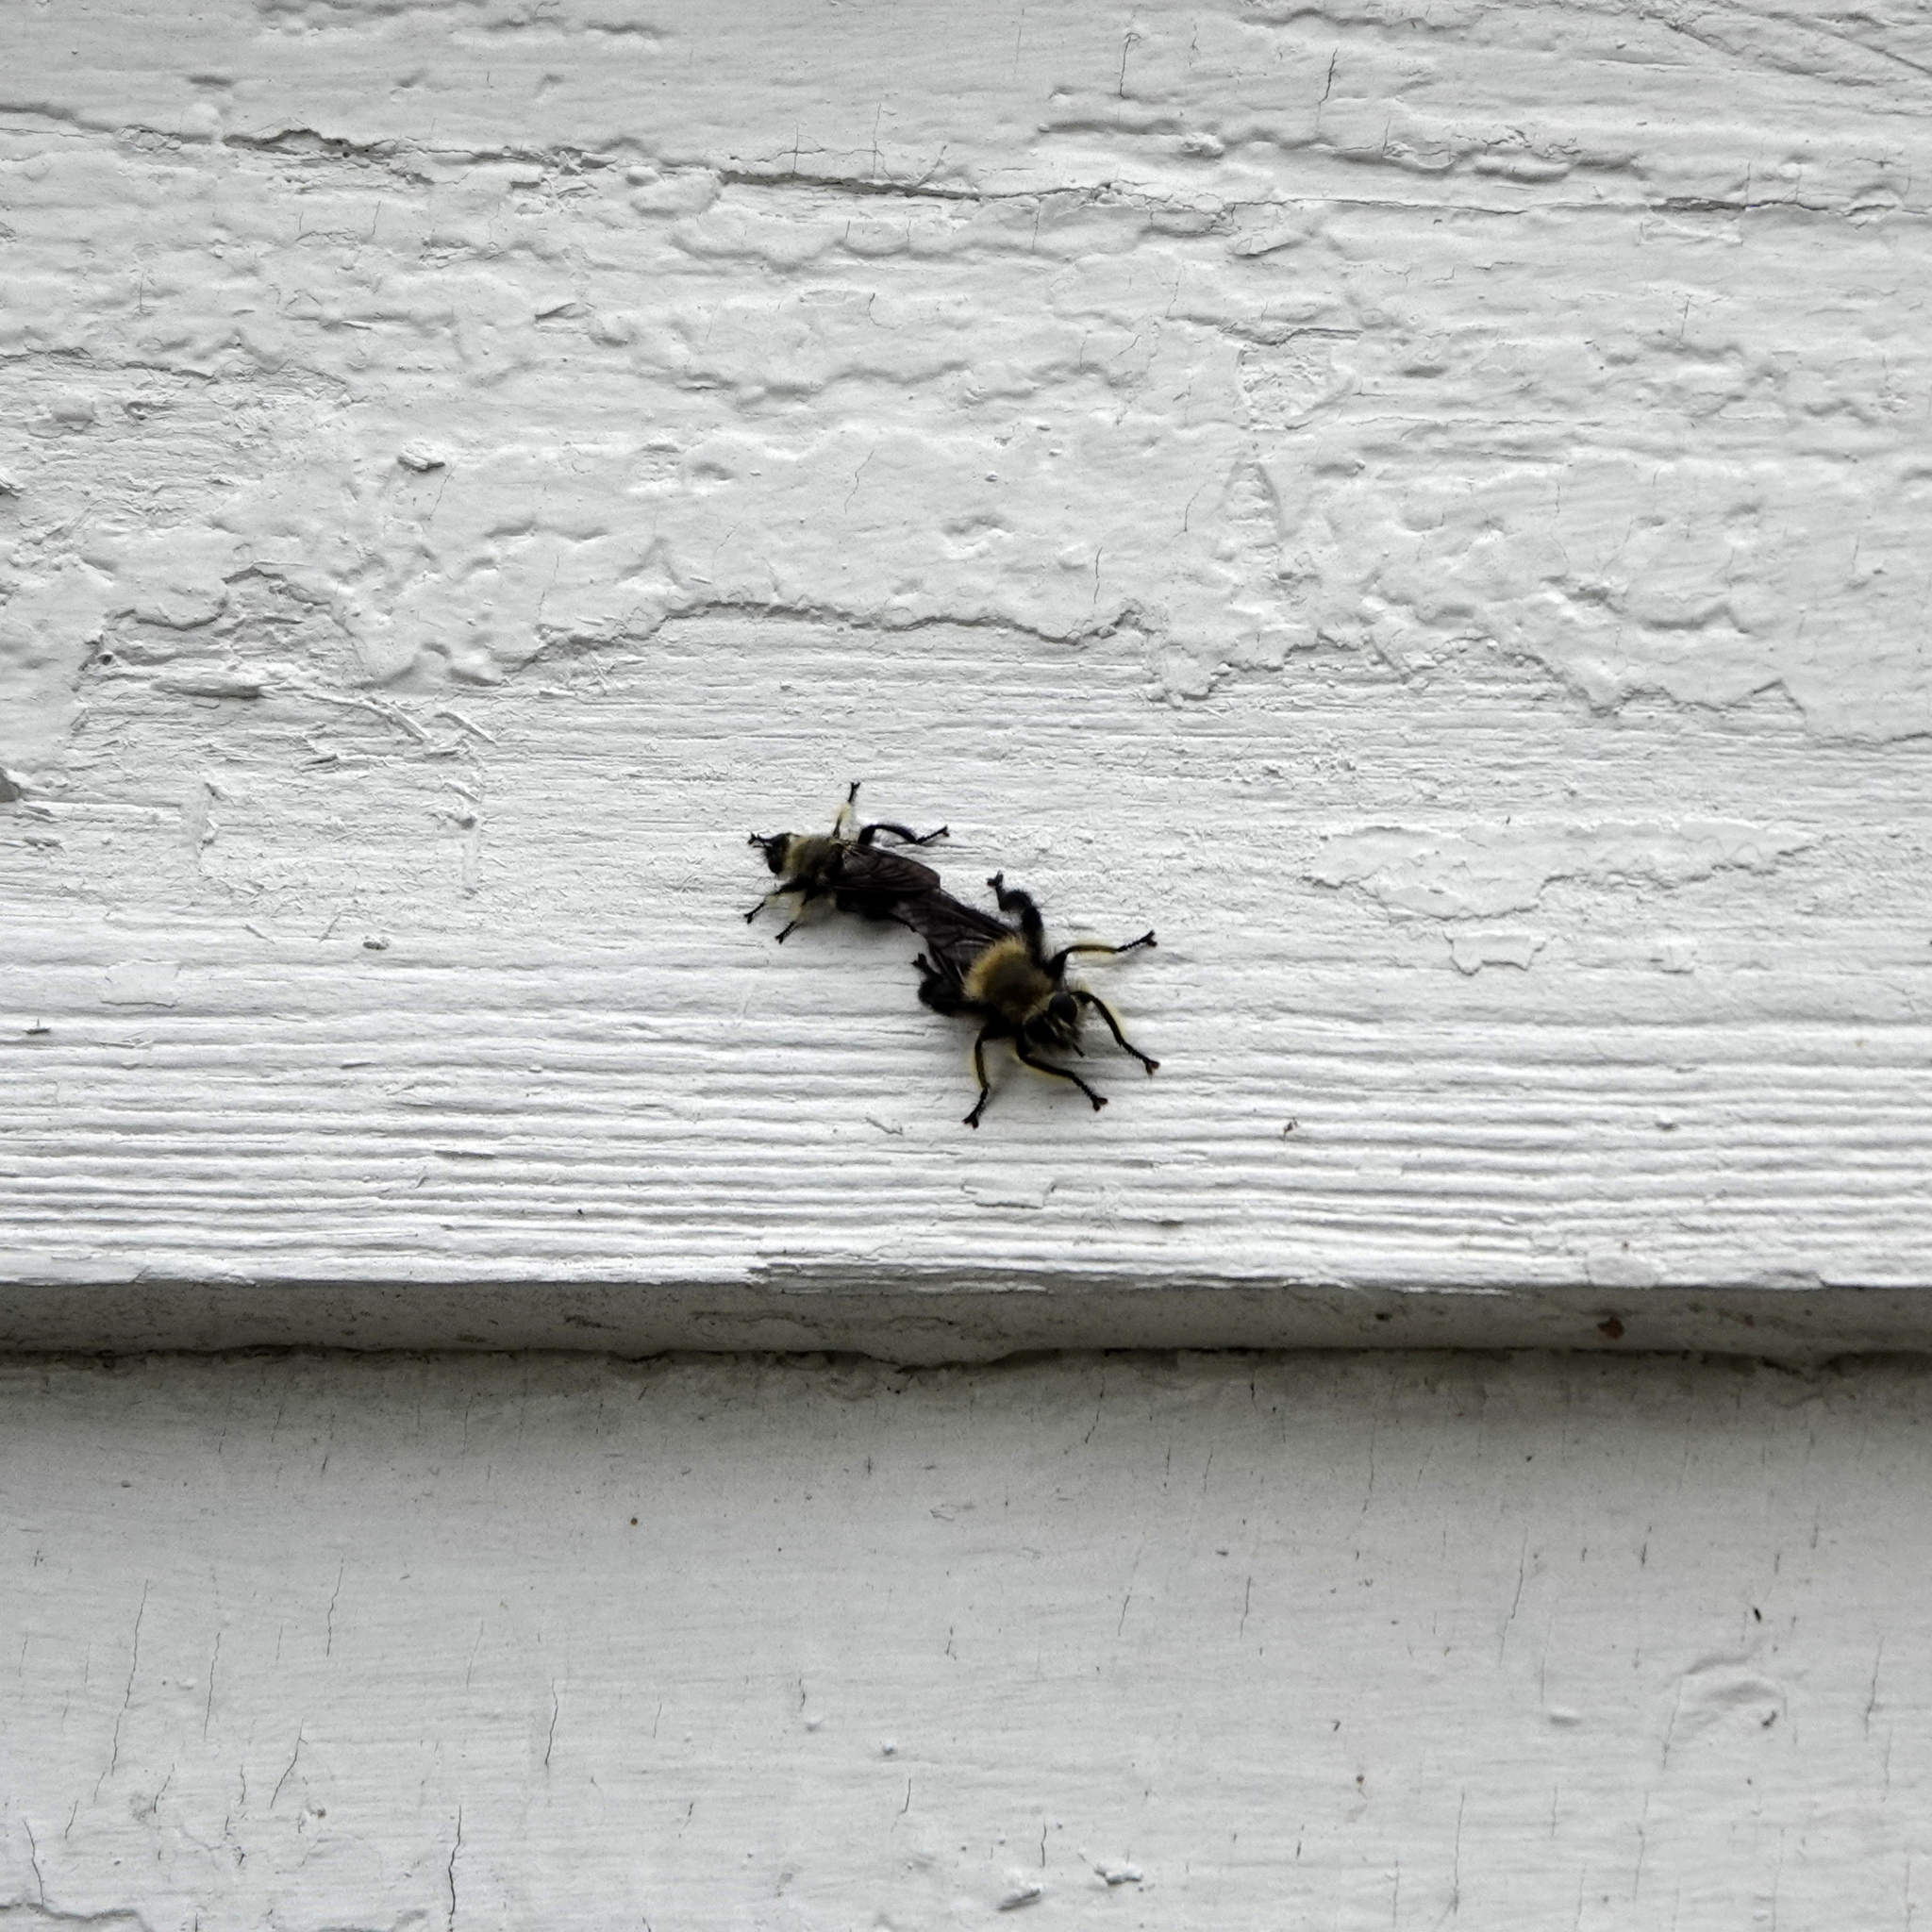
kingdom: Animalia
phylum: Arthropoda
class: Insecta
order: Diptera
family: Asilidae
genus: Laphria
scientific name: Laphria affinis
